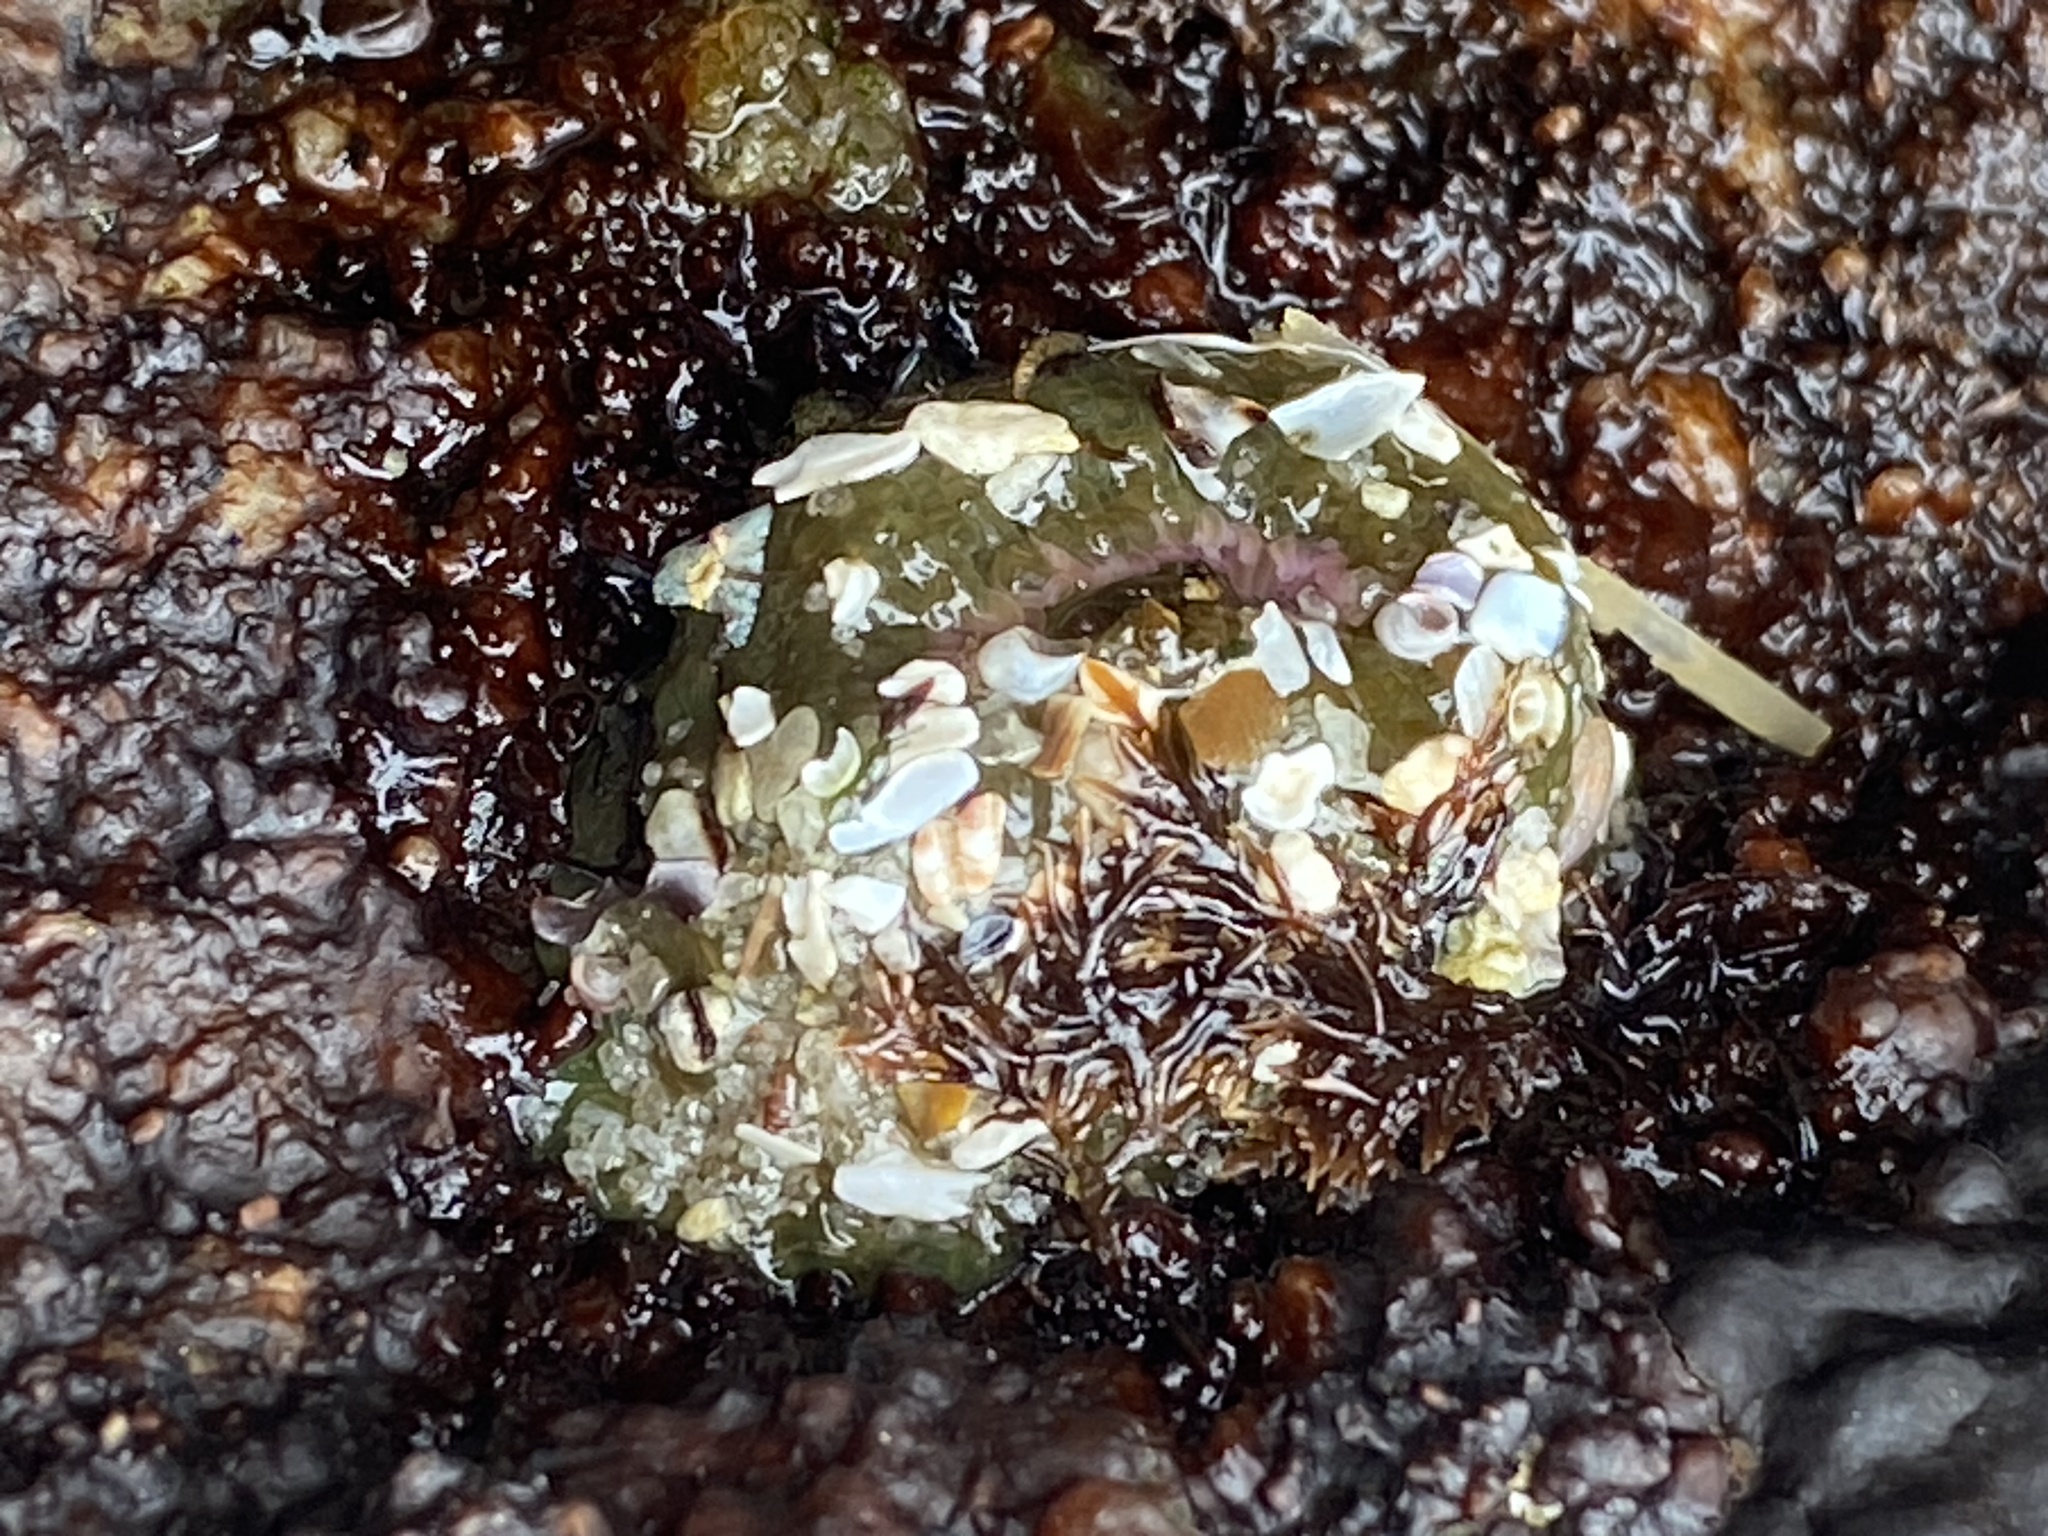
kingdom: Animalia
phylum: Cnidaria
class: Anthozoa
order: Actiniaria
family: Actiniidae
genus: Anthopleura
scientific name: Anthopleura elegantissima
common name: Clonal anemone
